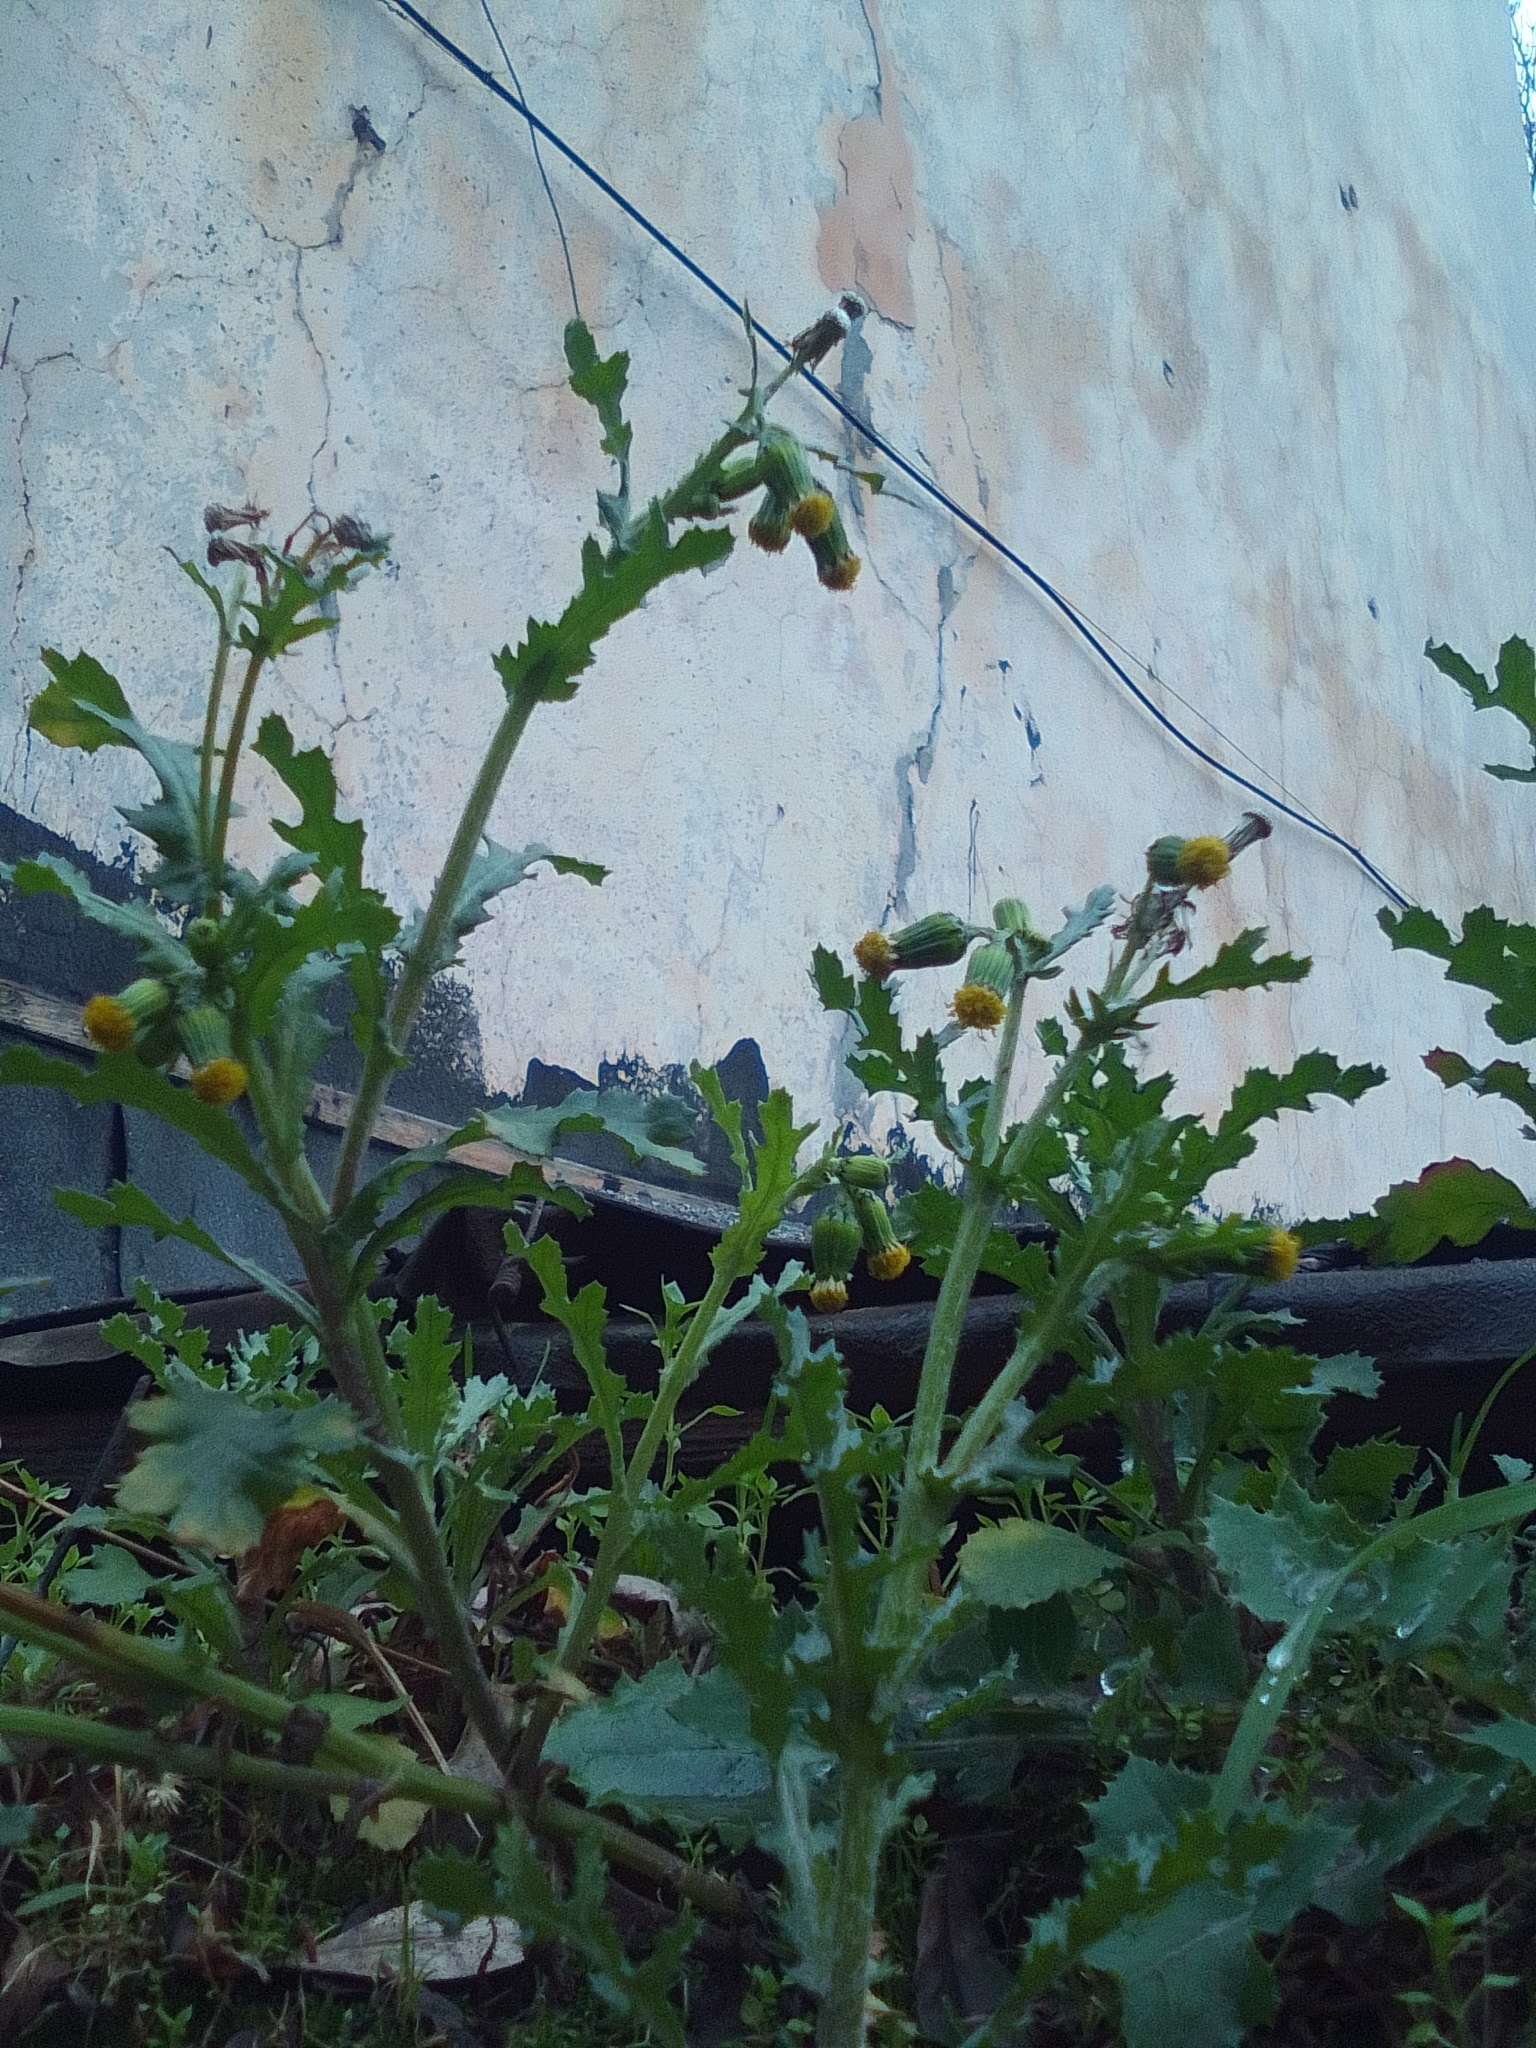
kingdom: Plantae
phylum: Tracheophyta
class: Magnoliopsida
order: Asterales
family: Asteraceae
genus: Senecio
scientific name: Senecio vulgaris
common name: Old-man-in-the-spring
